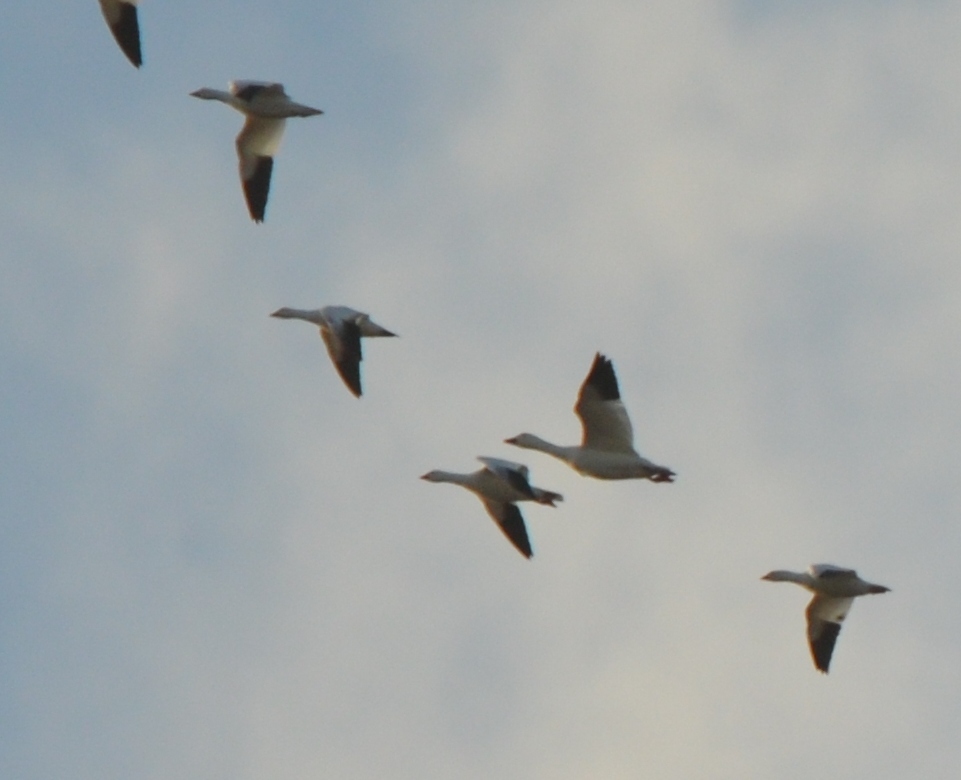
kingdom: Animalia
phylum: Chordata
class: Aves
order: Anseriformes
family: Anatidae
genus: Anser
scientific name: Anser rossii
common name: Ross's goose
